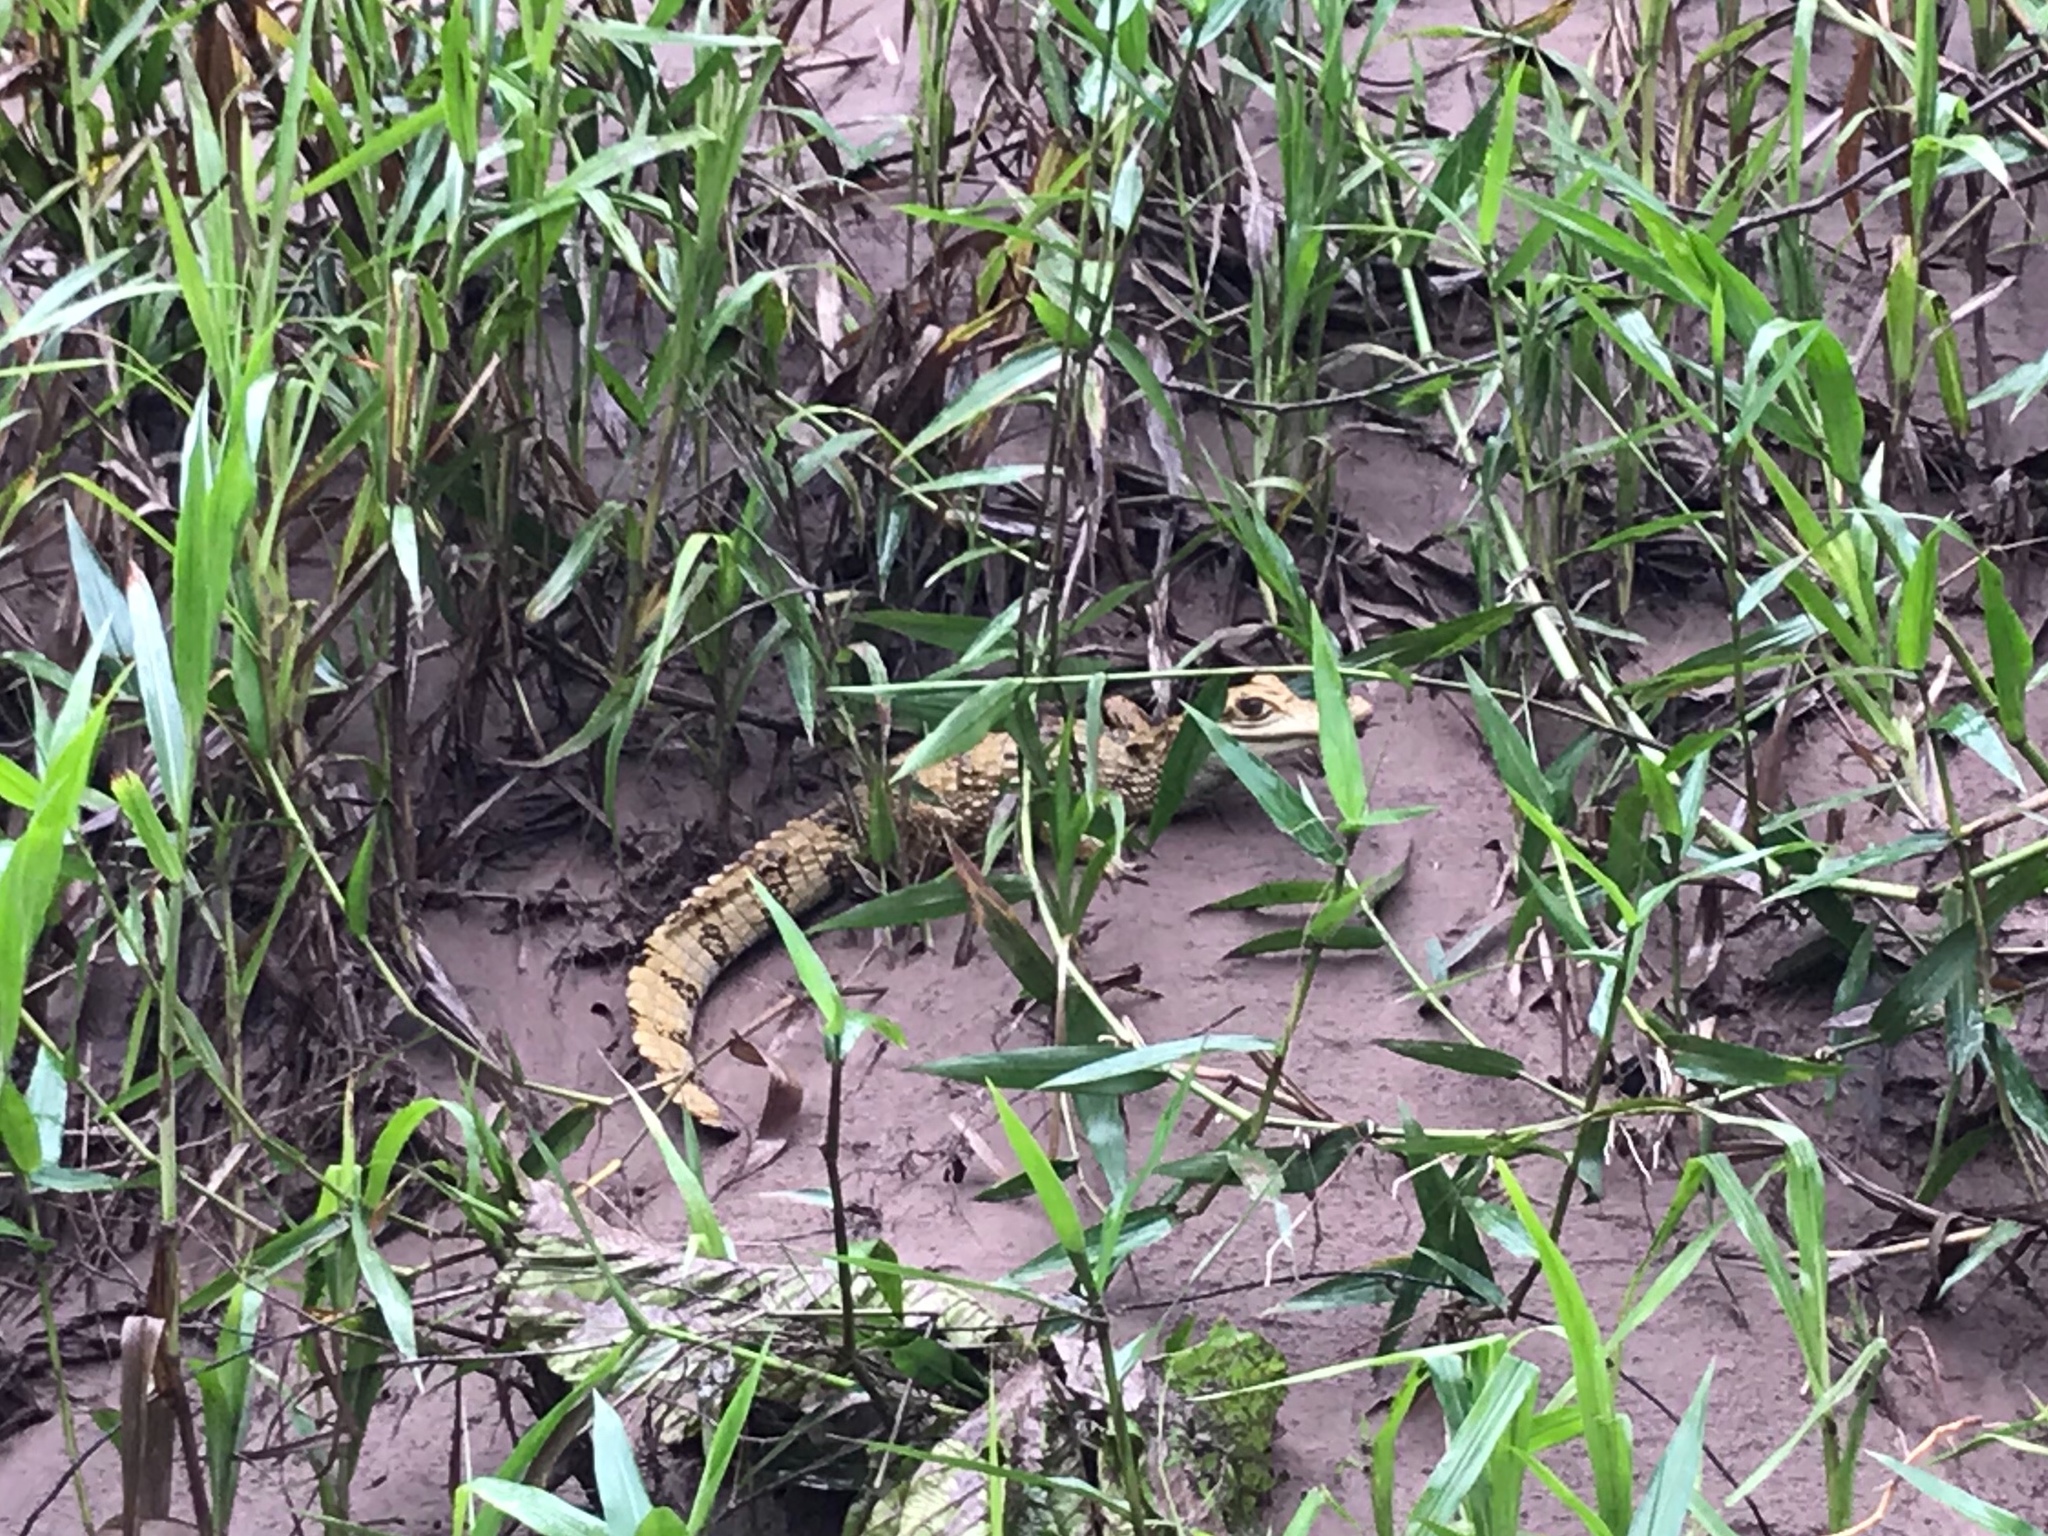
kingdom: Animalia
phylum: Chordata
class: Crocodylia
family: Alligatoridae
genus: Caiman
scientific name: Caiman crocodilus
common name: Common caiman
